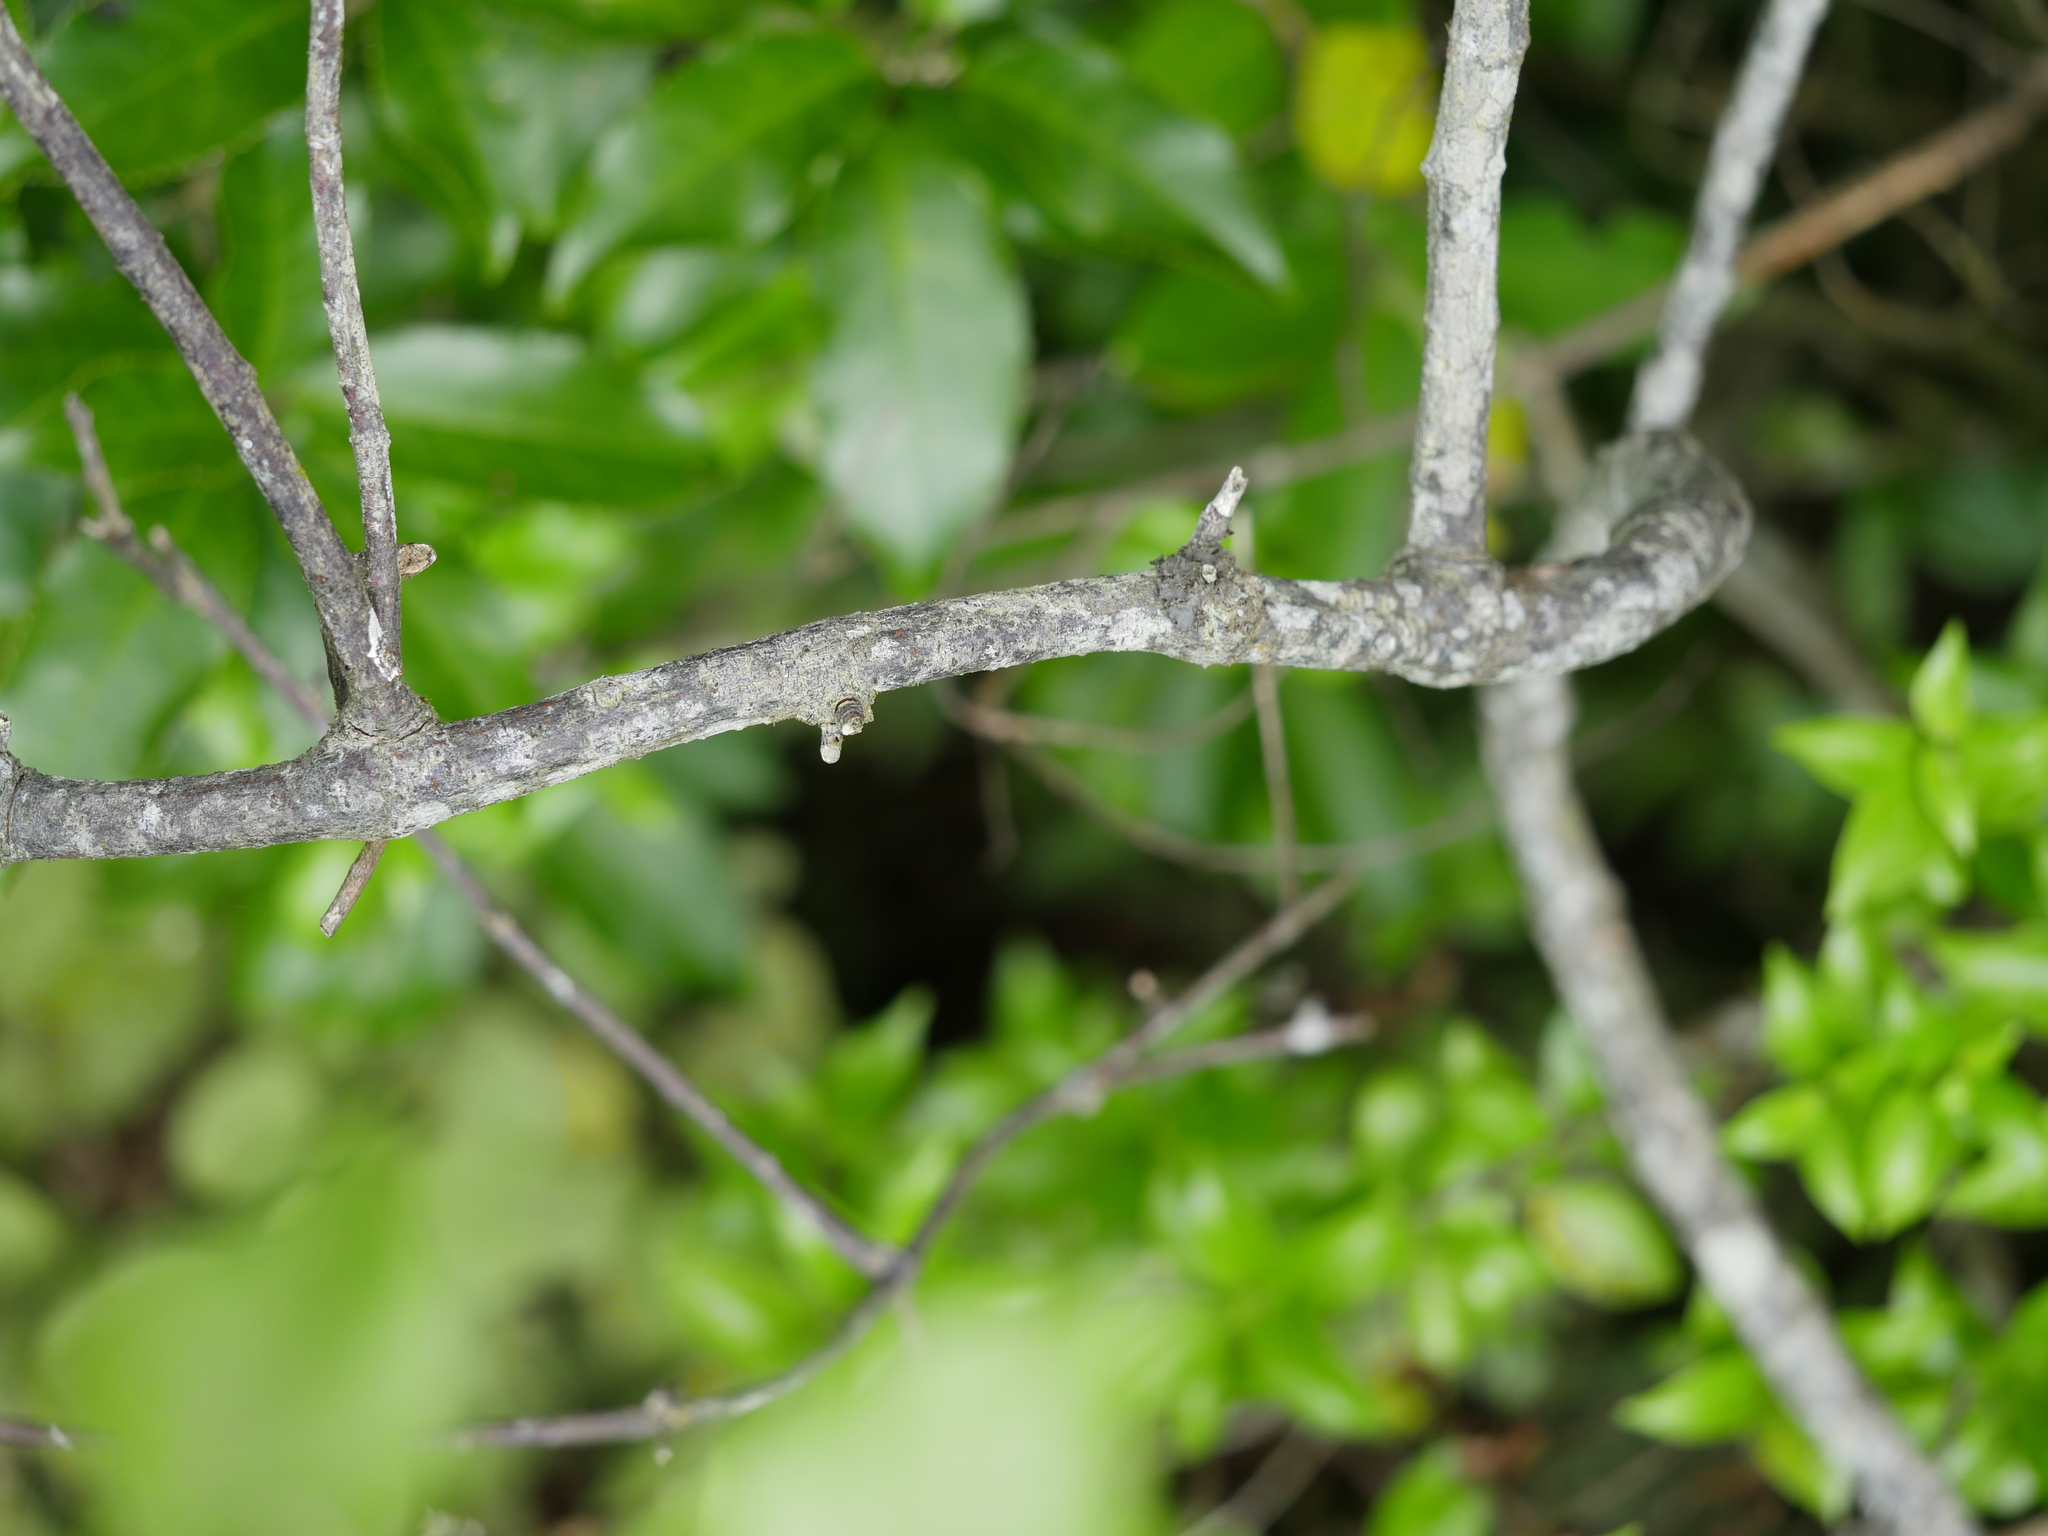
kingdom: Plantae
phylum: Tracheophyta
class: Magnoliopsida
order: Caryophyllales
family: Polygonaceae
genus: Muehlenbeckia
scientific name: Muehlenbeckia australis
